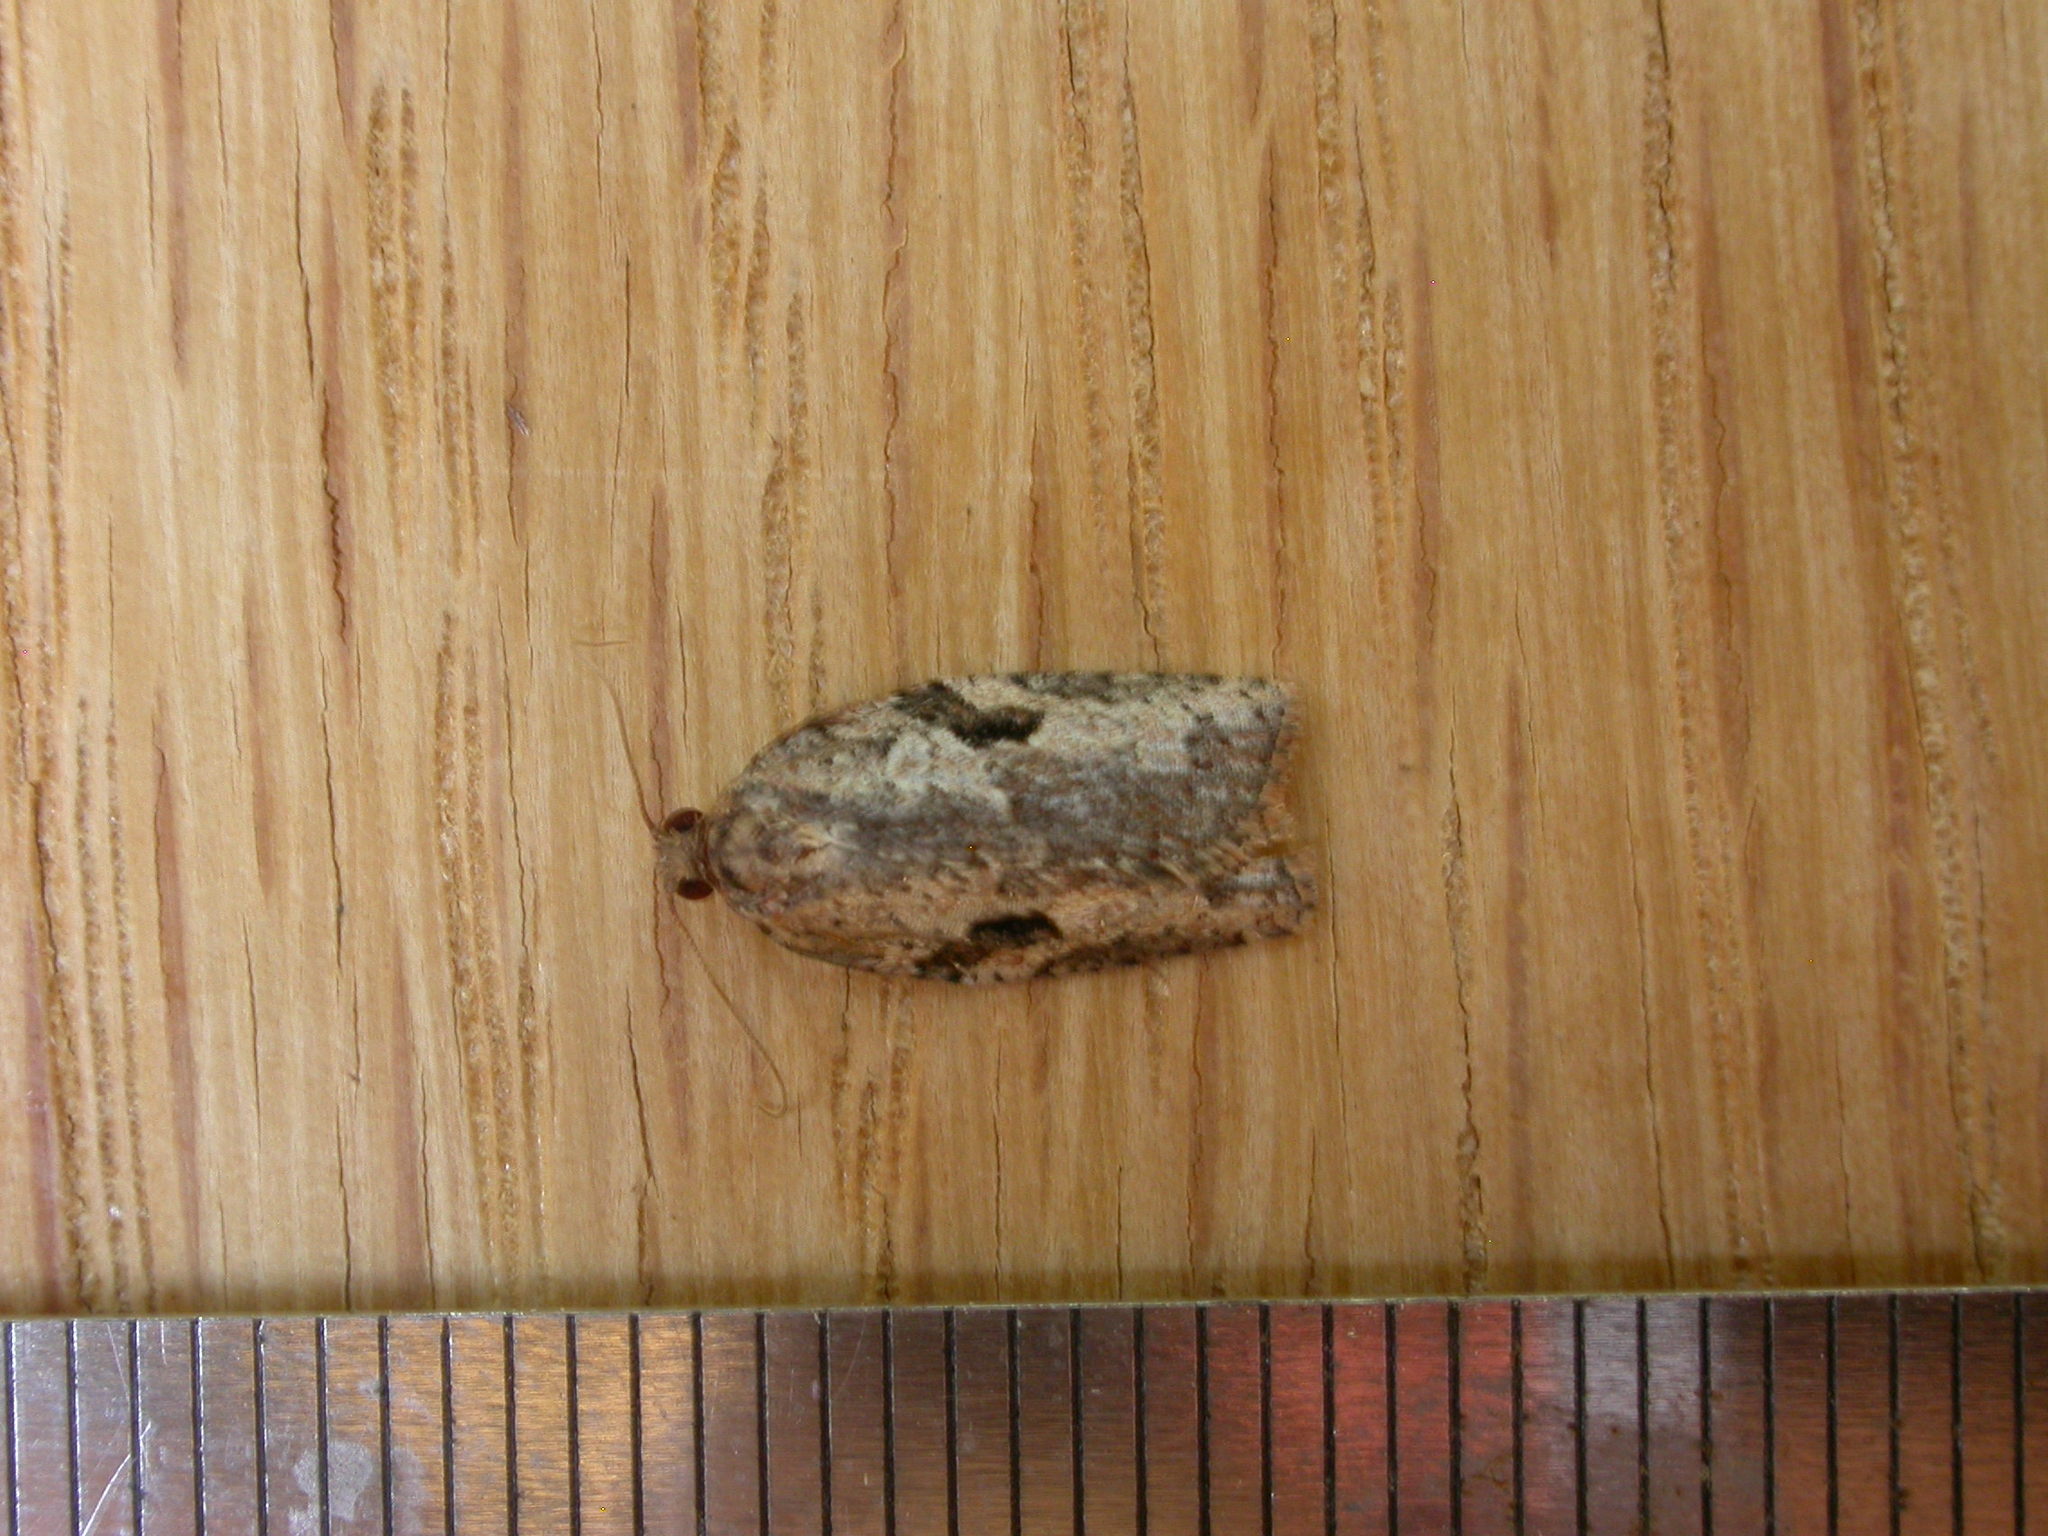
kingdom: Animalia
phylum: Arthropoda
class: Insecta
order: Lepidoptera
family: Tortricidae
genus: Epiphyas
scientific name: Epiphyas xylodes
